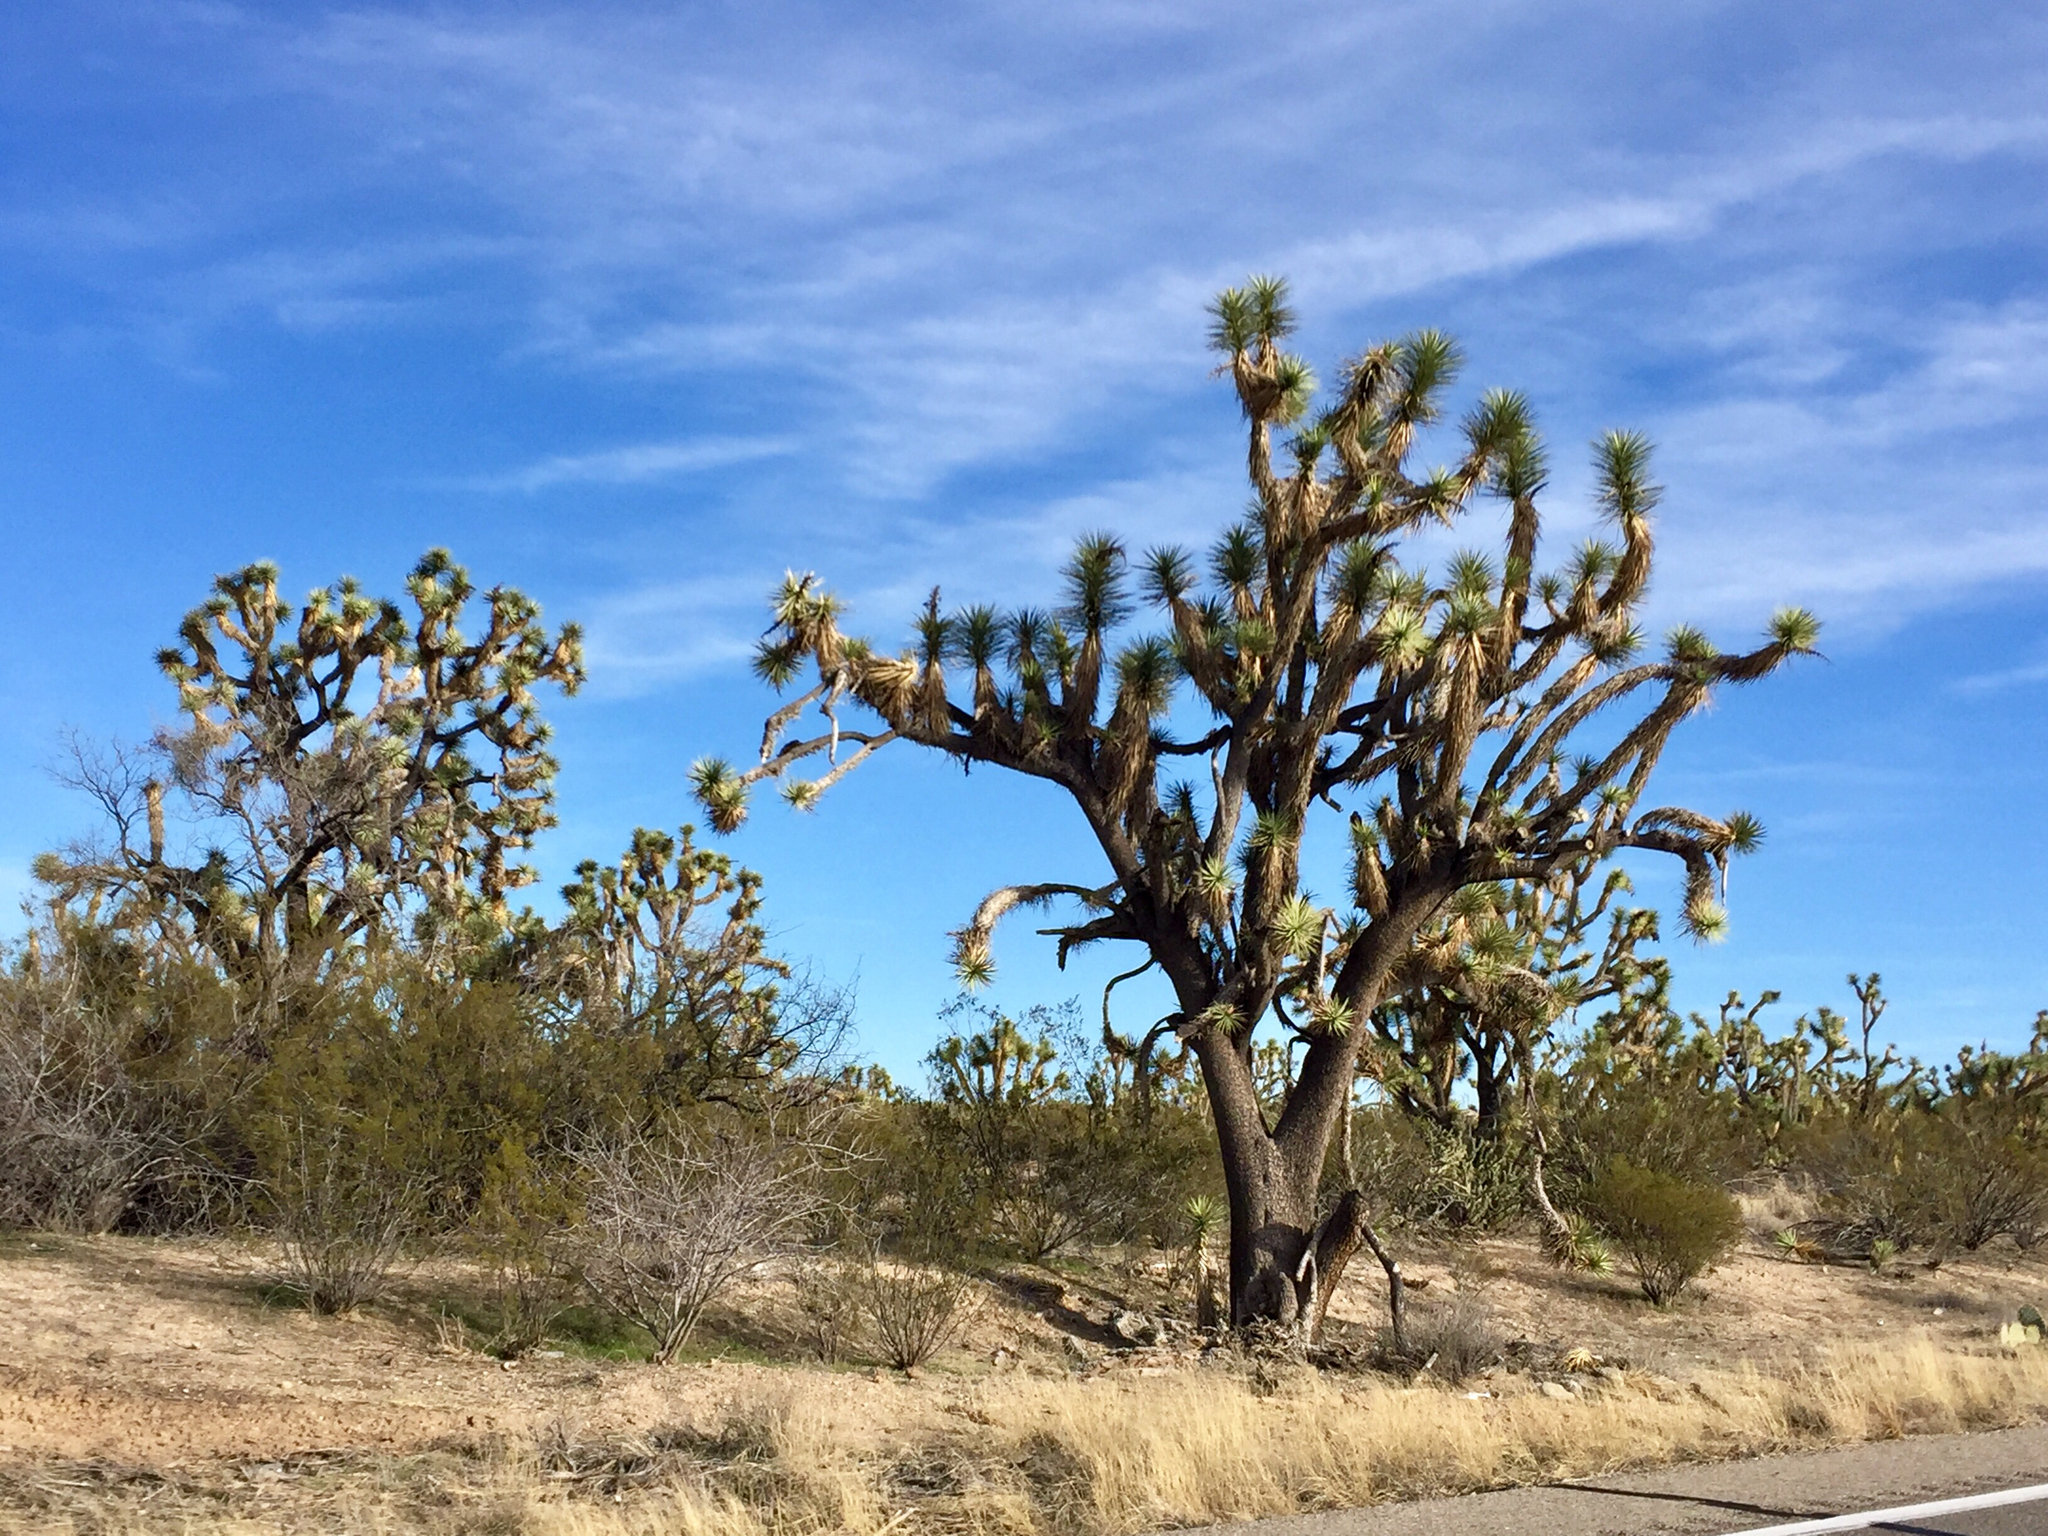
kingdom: Plantae
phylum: Tracheophyta
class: Liliopsida
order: Asparagales
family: Asparagaceae
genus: Yucca
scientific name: Yucca brevifolia
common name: Joshua tree
